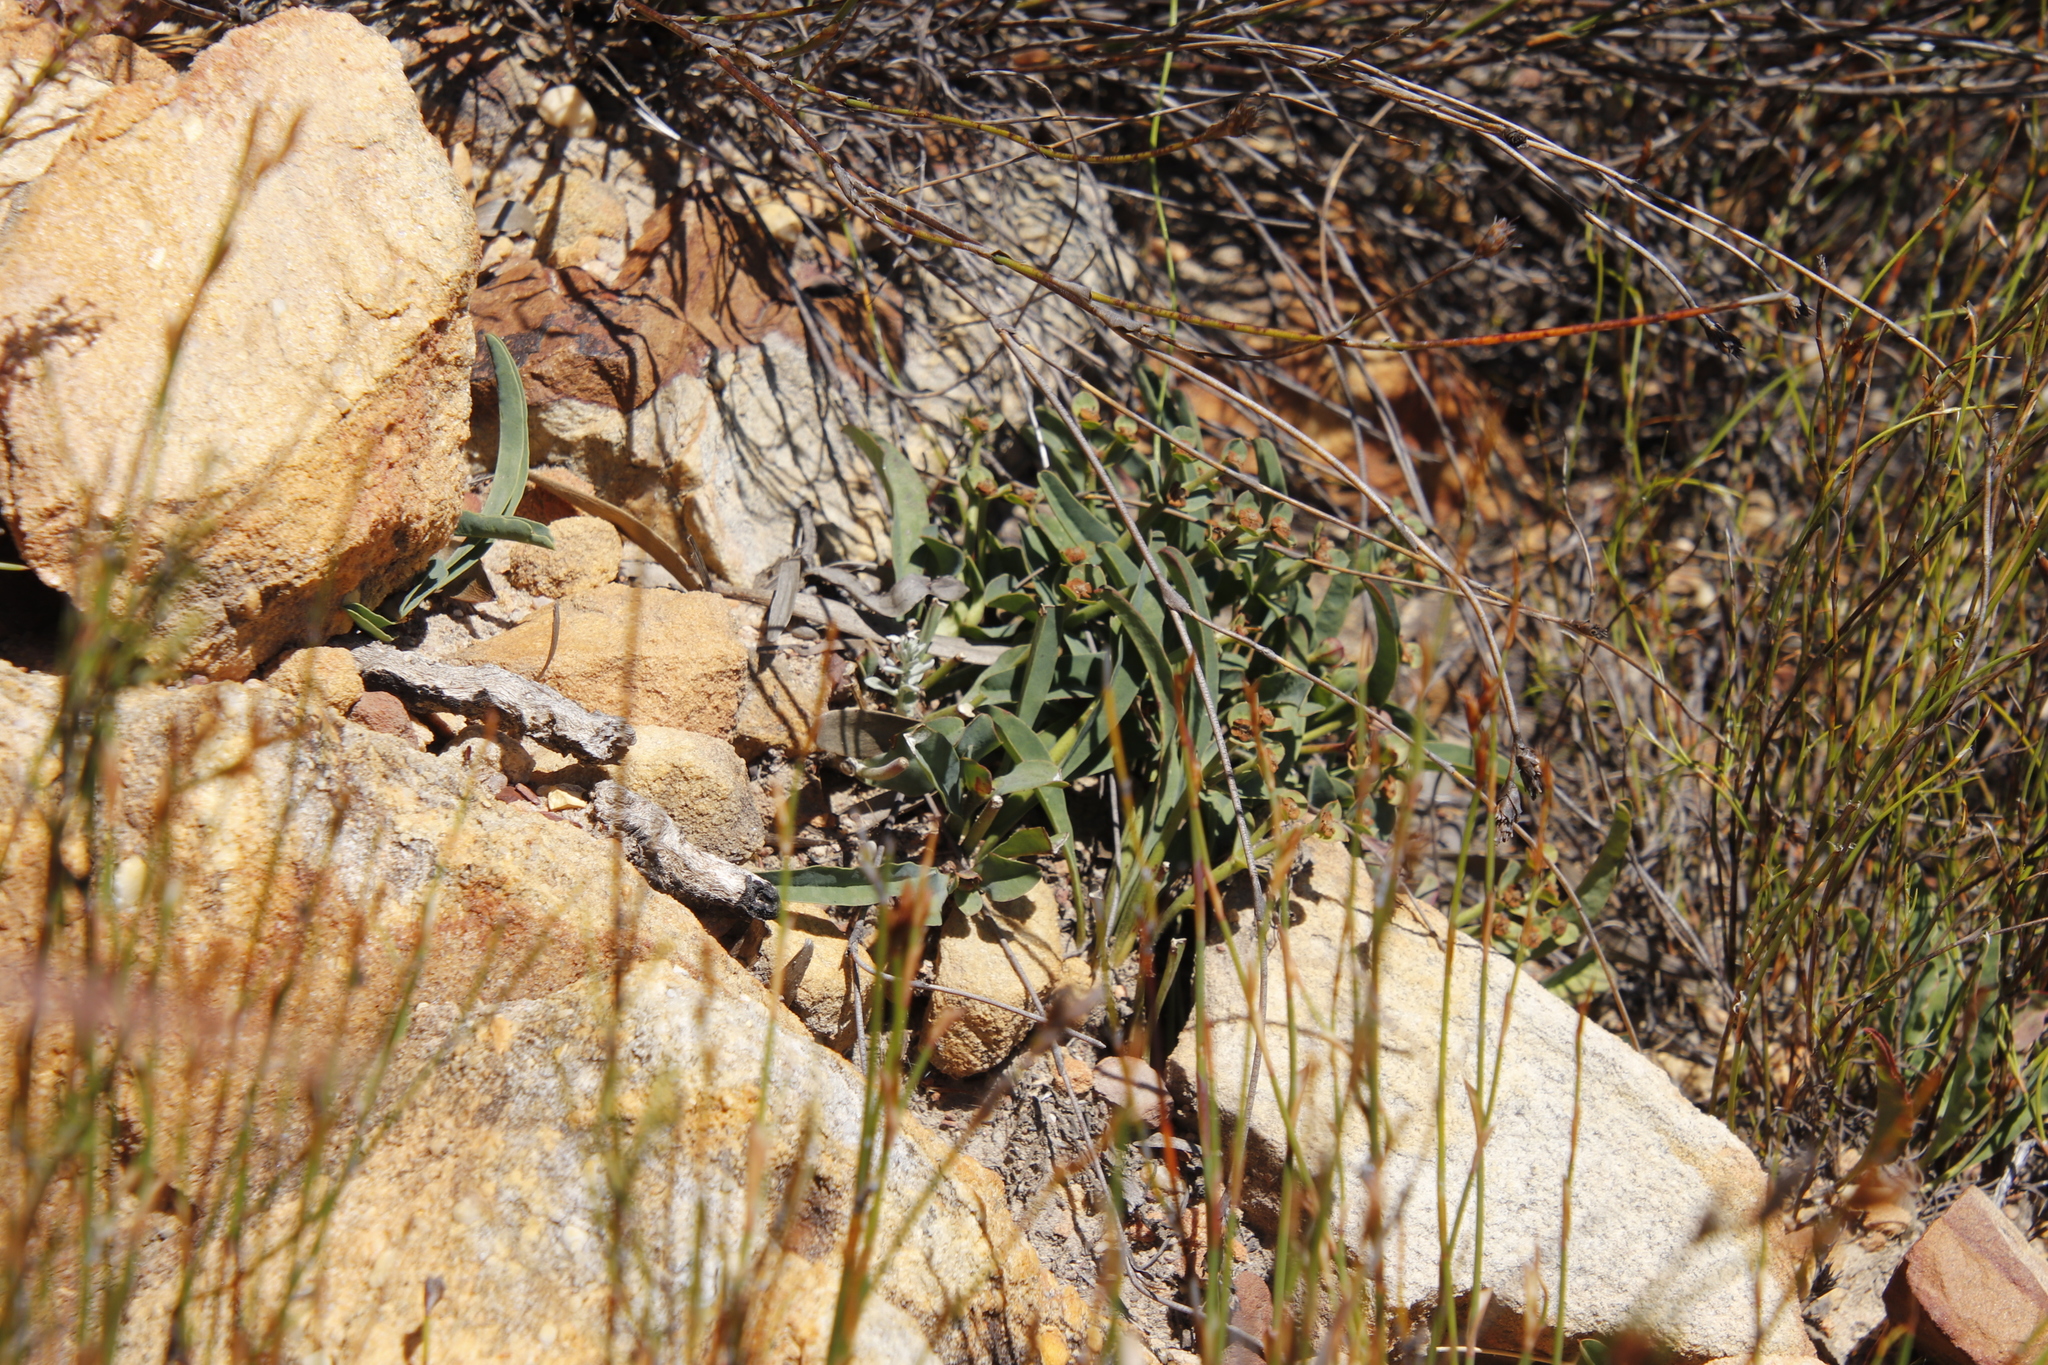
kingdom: Plantae
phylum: Tracheophyta
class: Magnoliopsida
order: Malpighiales
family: Euphorbiaceae
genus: Euphorbia
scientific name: Euphorbia tuberosa
